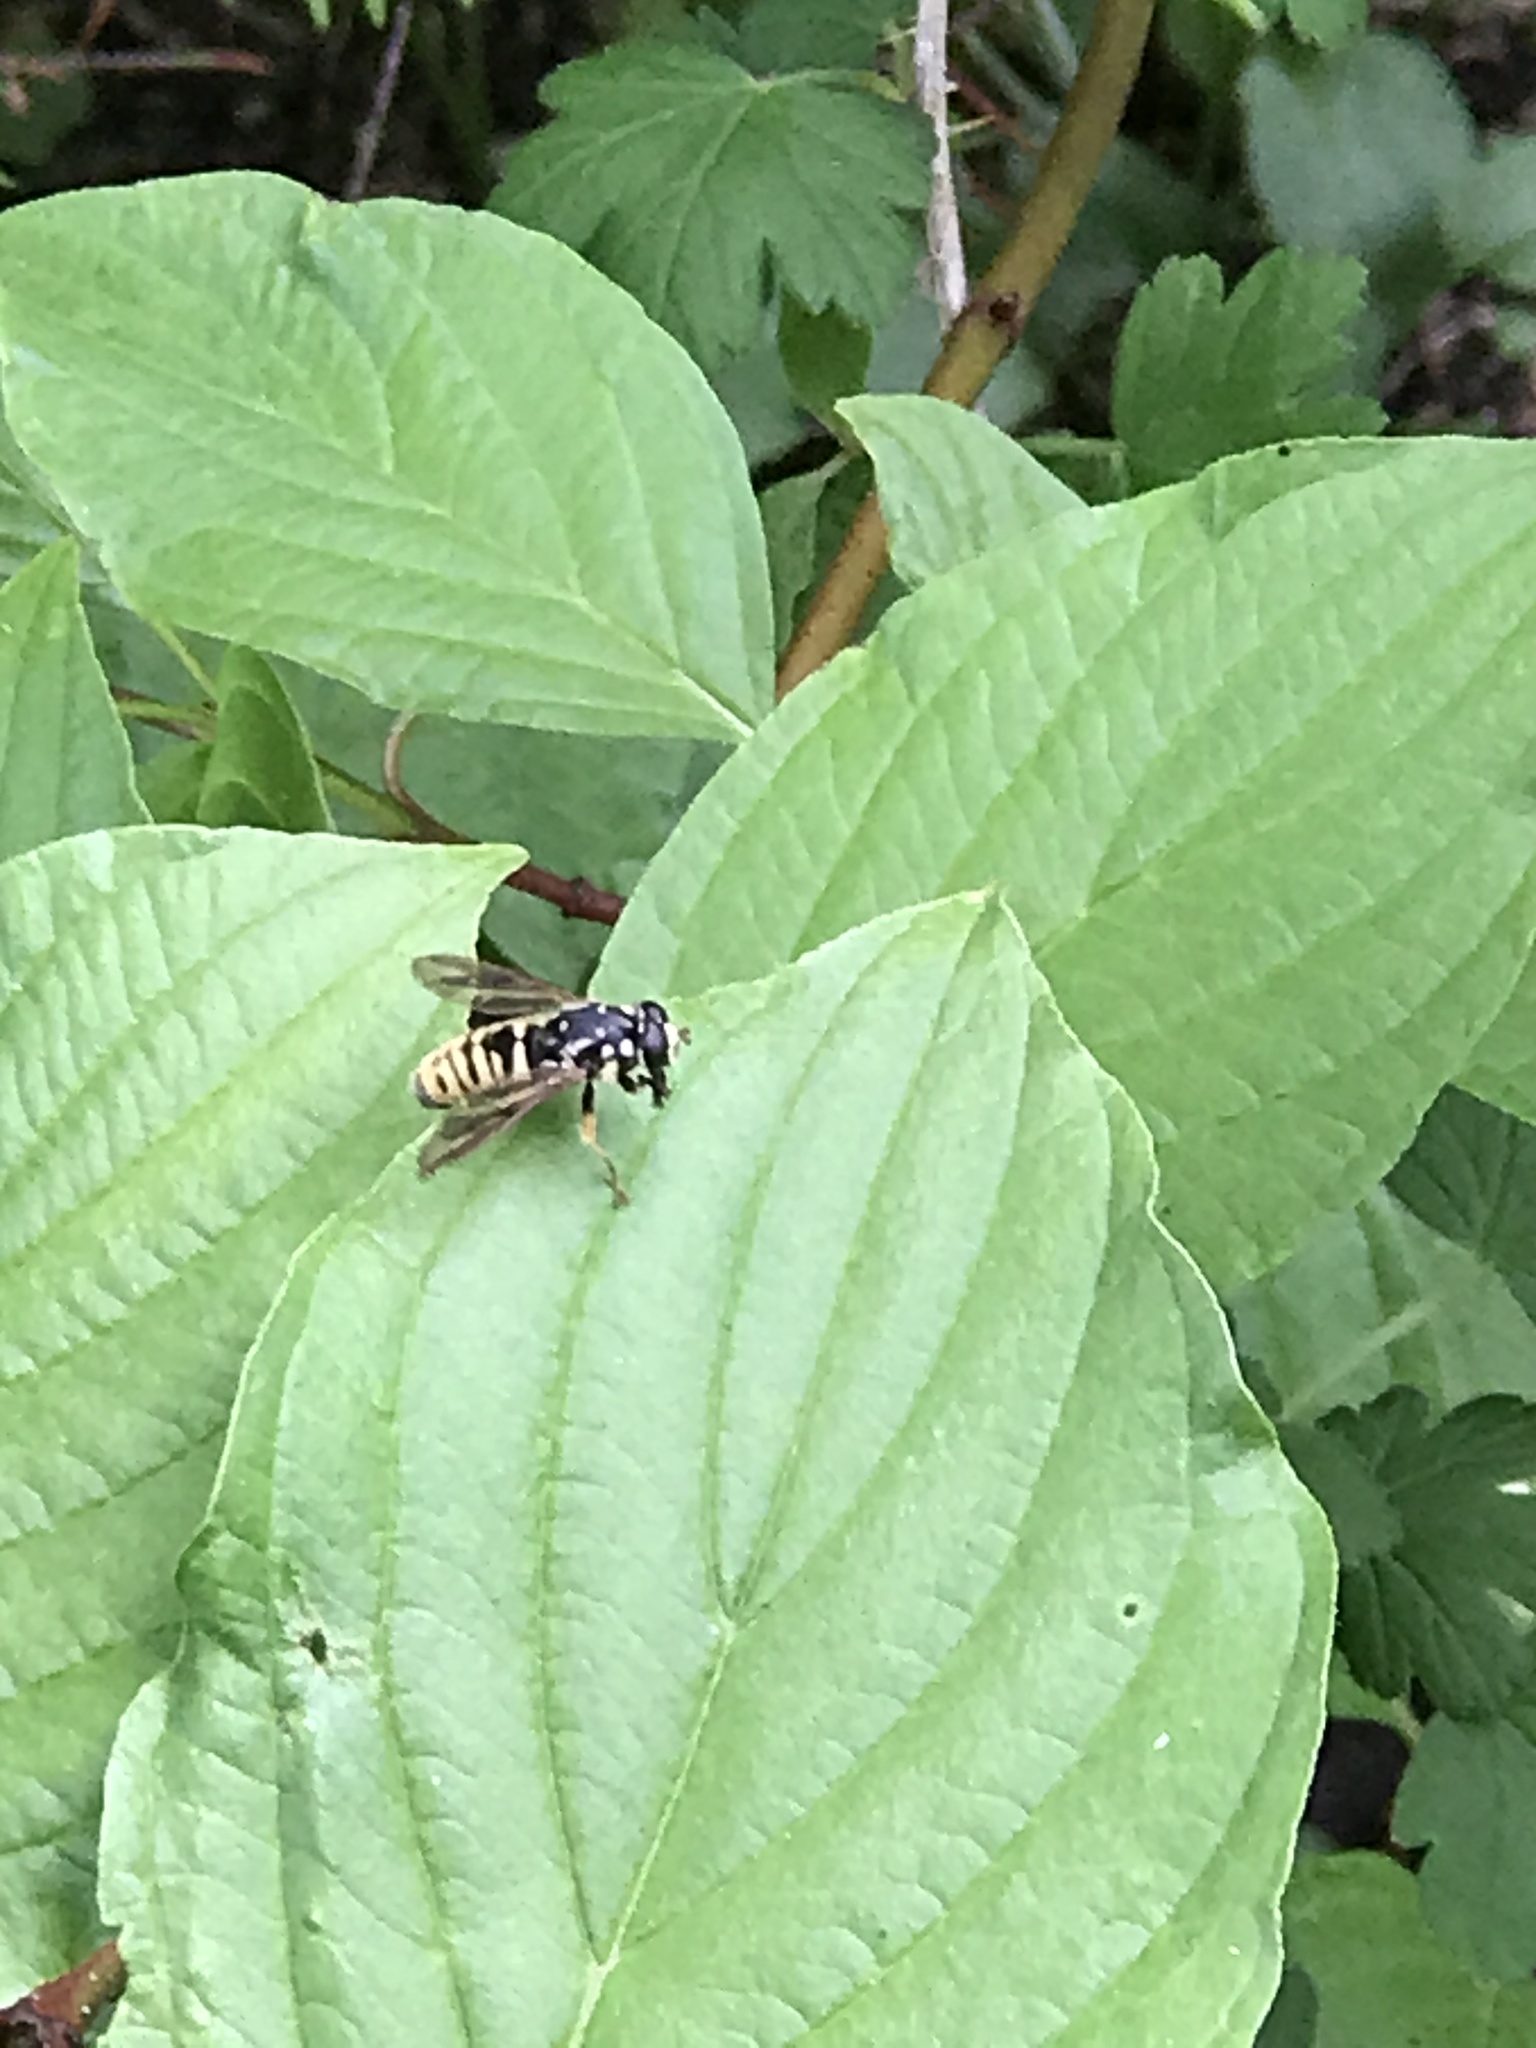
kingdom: Animalia
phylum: Arthropoda
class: Insecta
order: Diptera
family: Syrphidae
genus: Temnostoma
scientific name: Temnostoma alternans
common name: Wasp-like falsehorn
